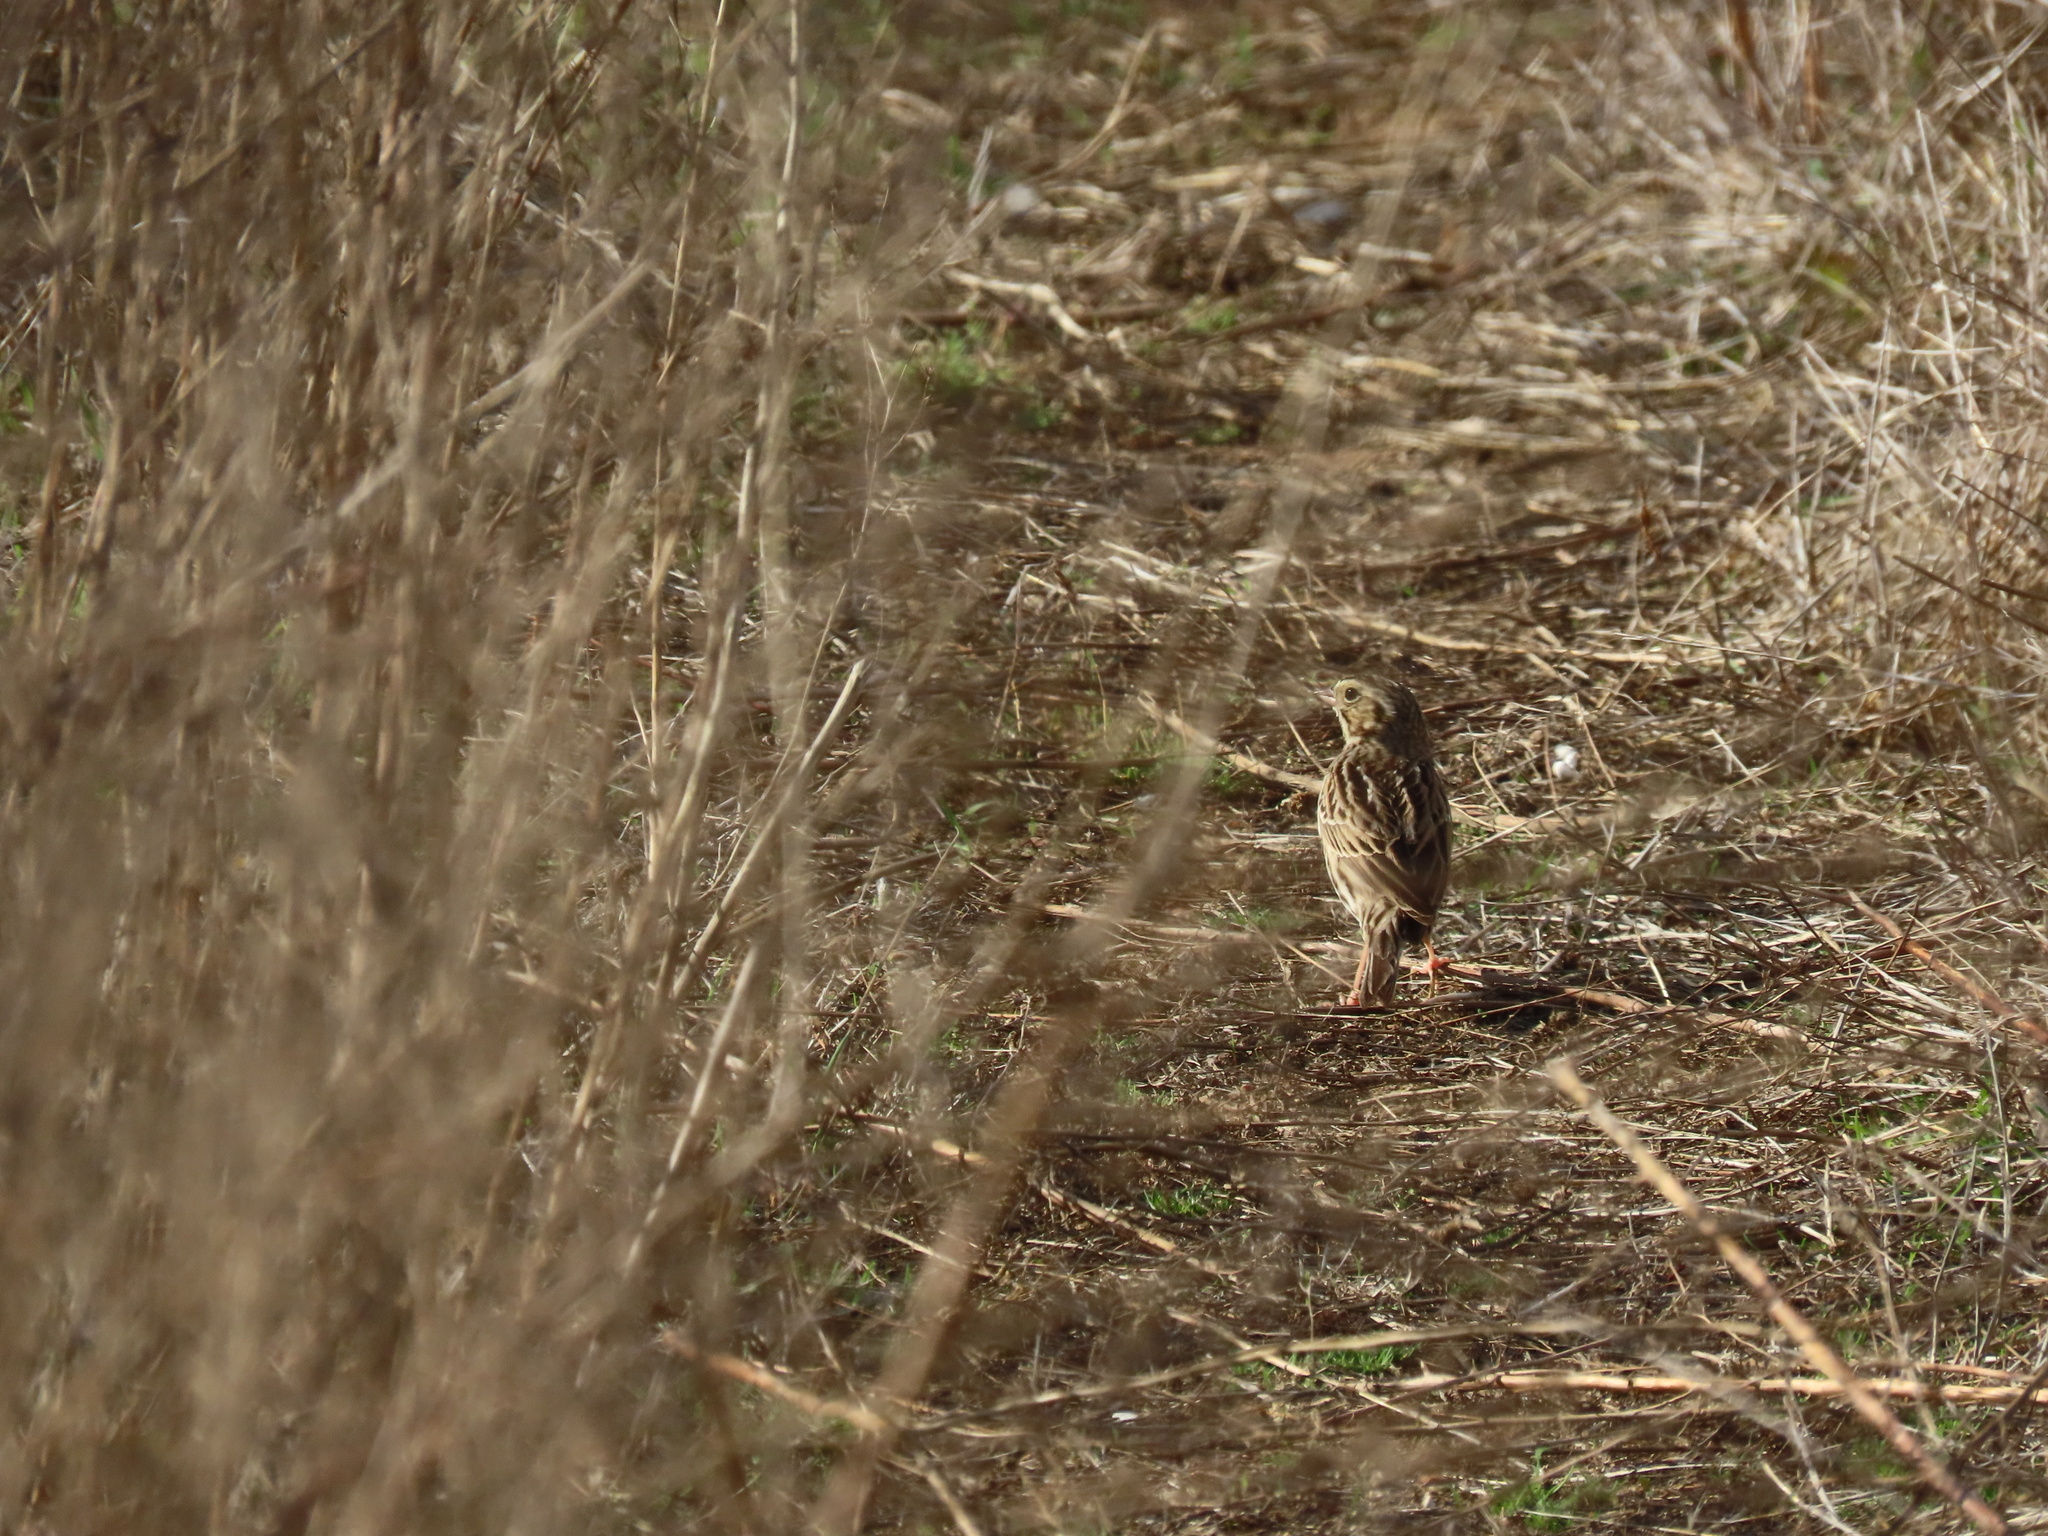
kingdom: Animalia
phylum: Chordata
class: Aves
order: Passeriformes
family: Passerellidae
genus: Passerculus
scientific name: Passerculus sandwichensis
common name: Savannah sparrow
